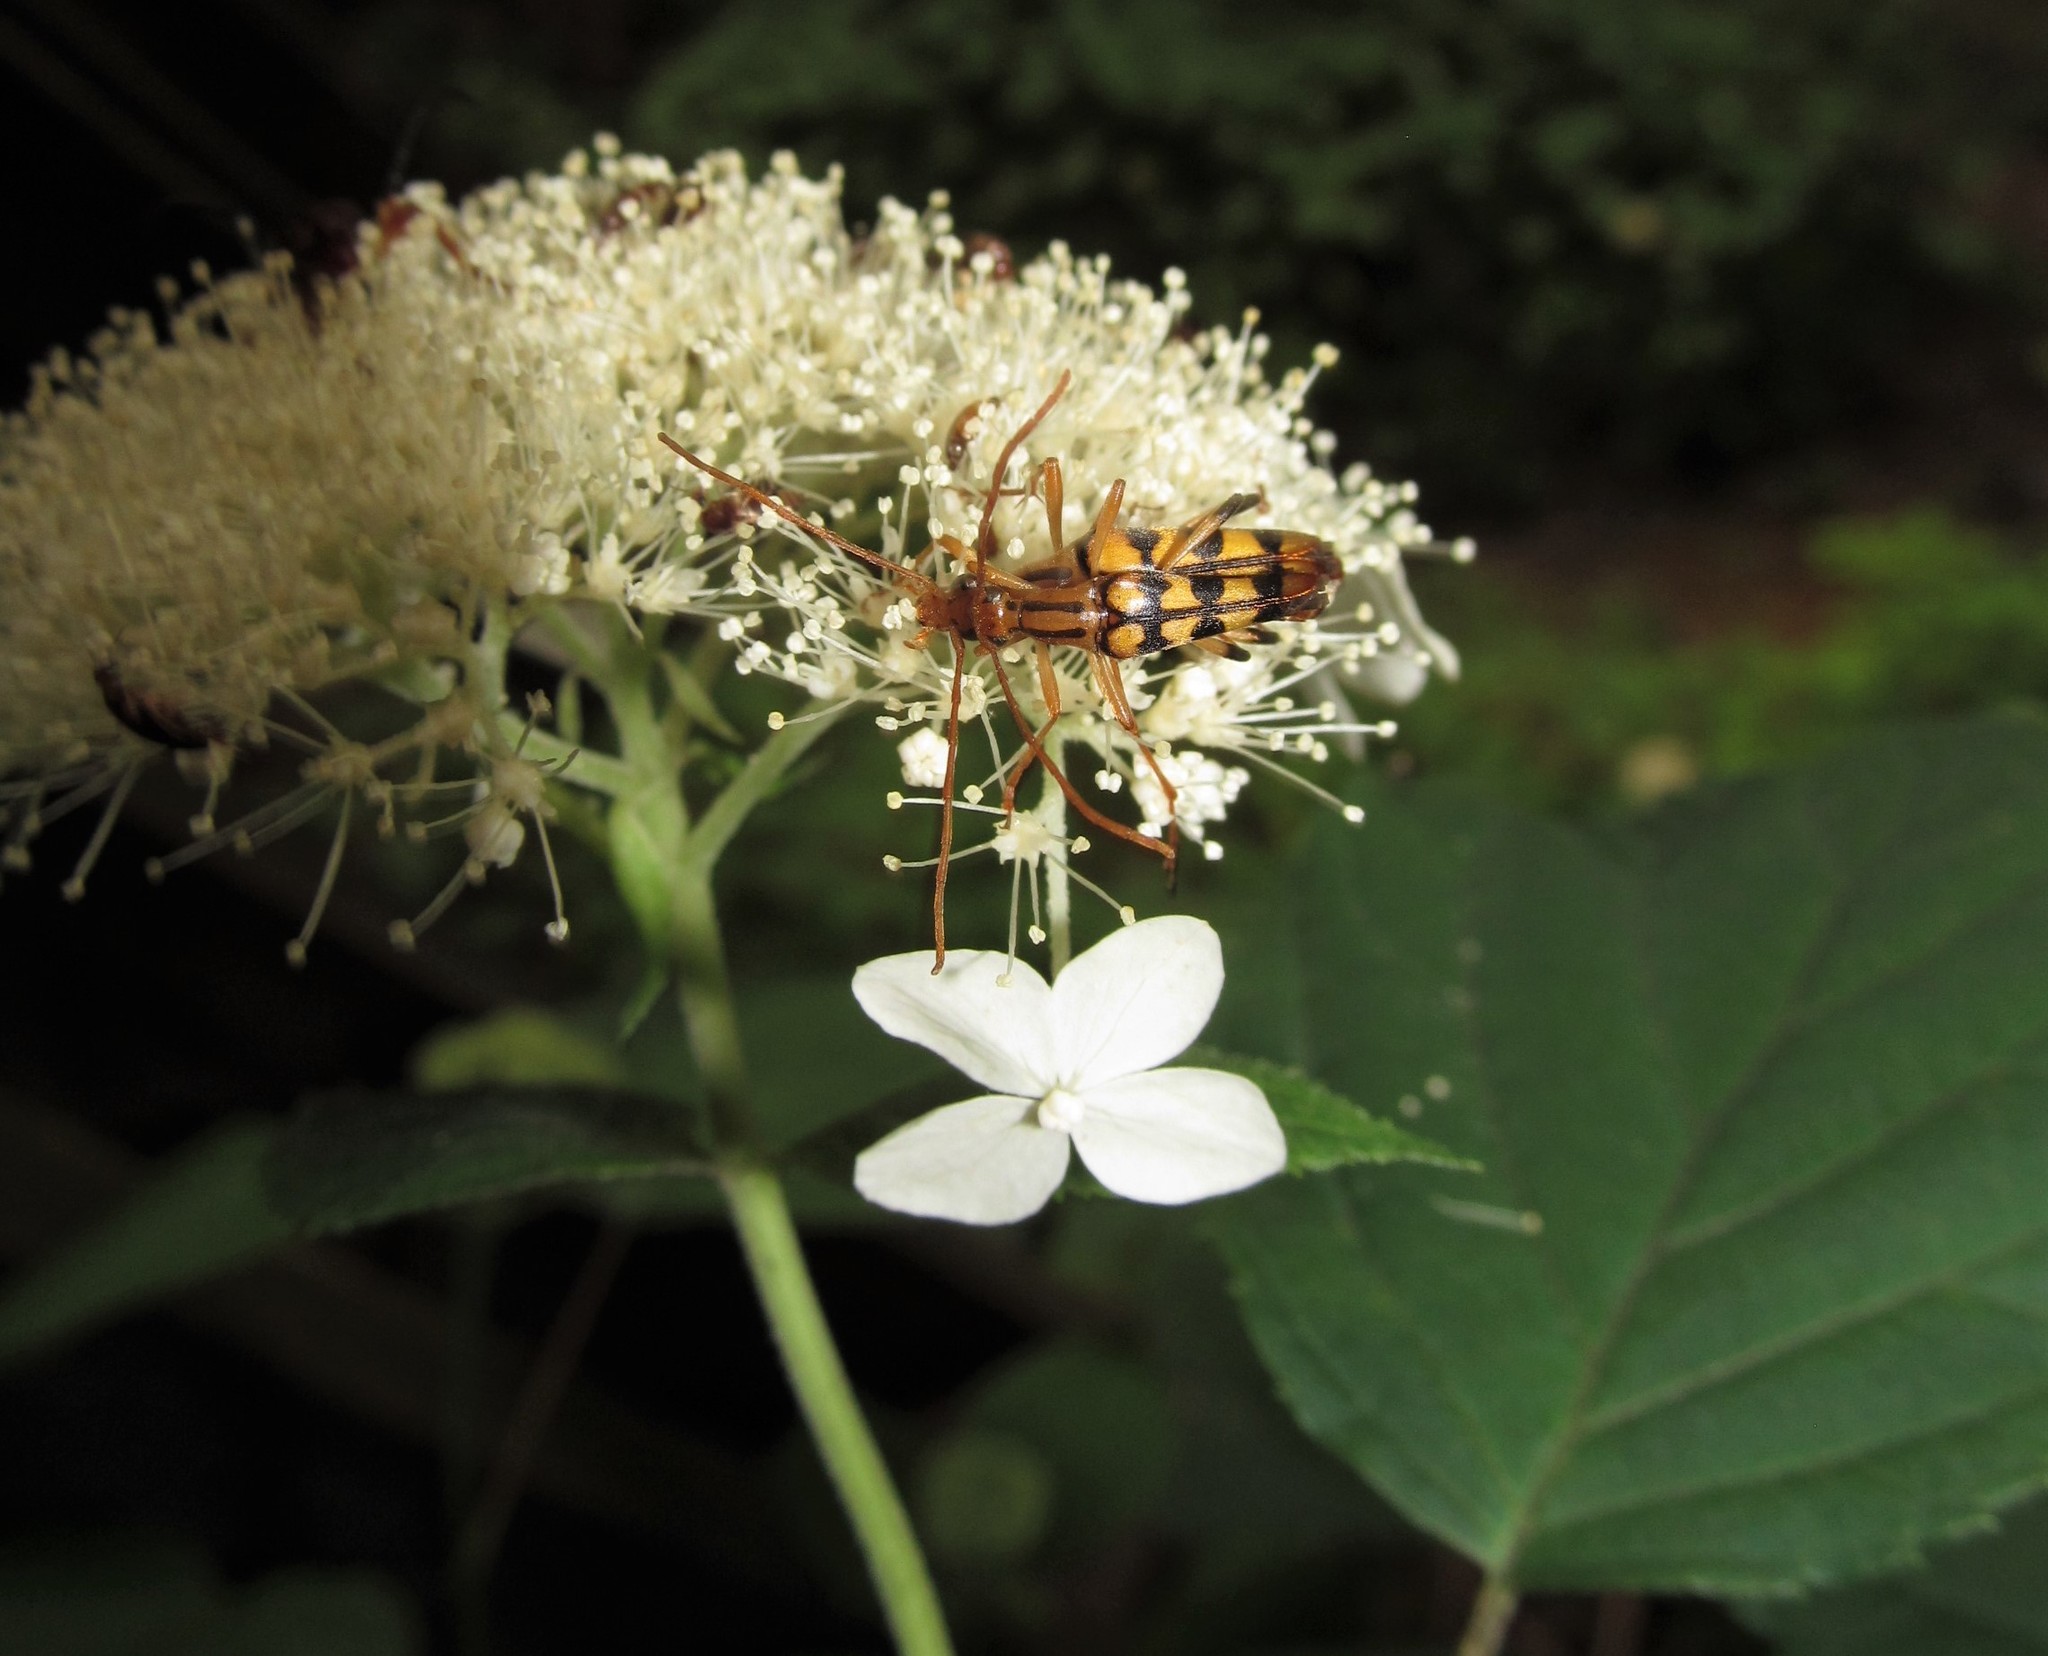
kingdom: Animalia
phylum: Arthropoda
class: Insecta
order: Coleoptera
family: Cerambycidae
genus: Strangalia
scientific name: Strangalia luteicornis
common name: Yellow-horned flower longhorn beetle
